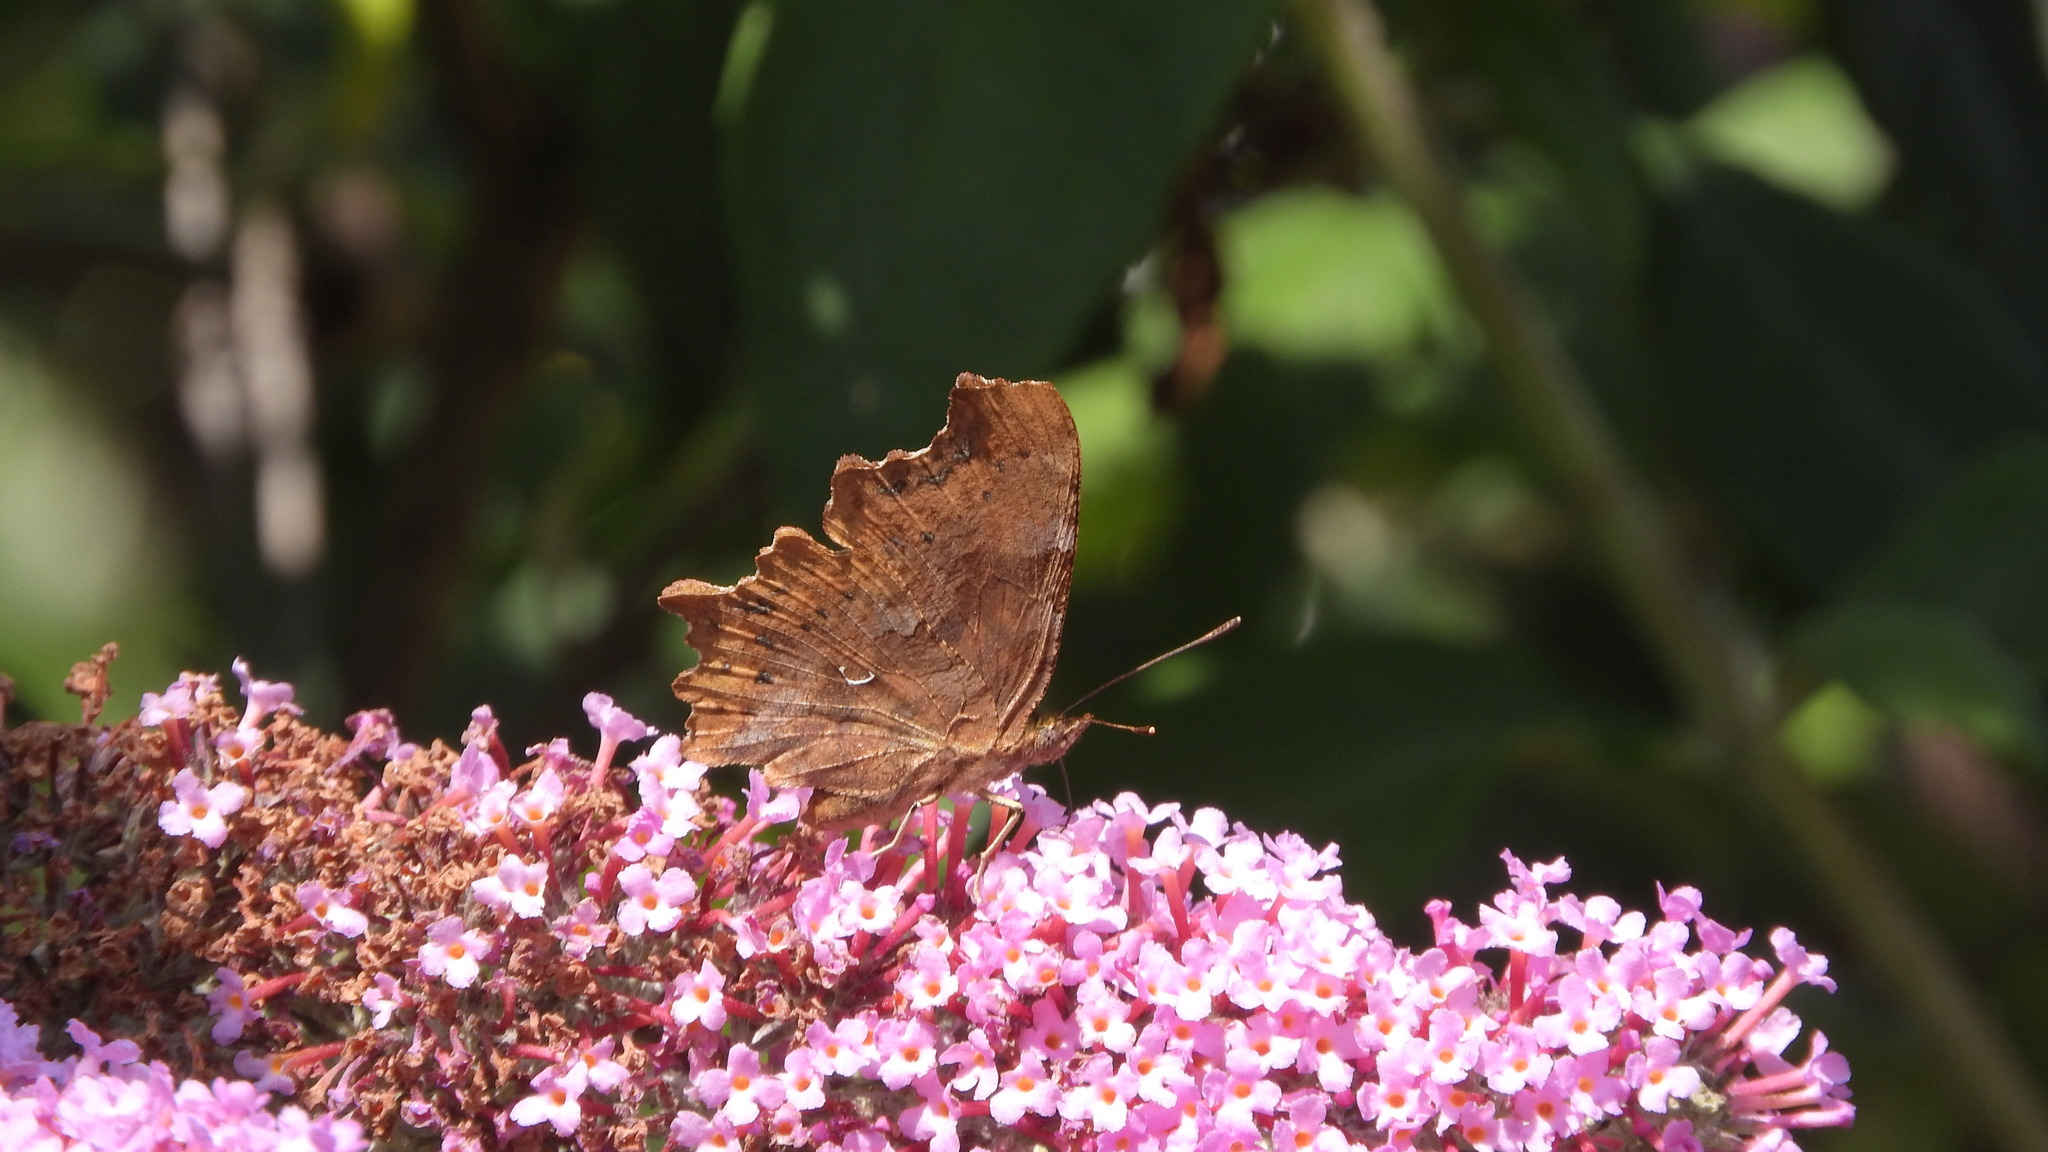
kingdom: Animalia
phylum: Arthropoda
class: Insecta
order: Lepidoptera
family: Nymphalidae
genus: Polygonia
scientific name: Polygonia c-album
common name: Comma
